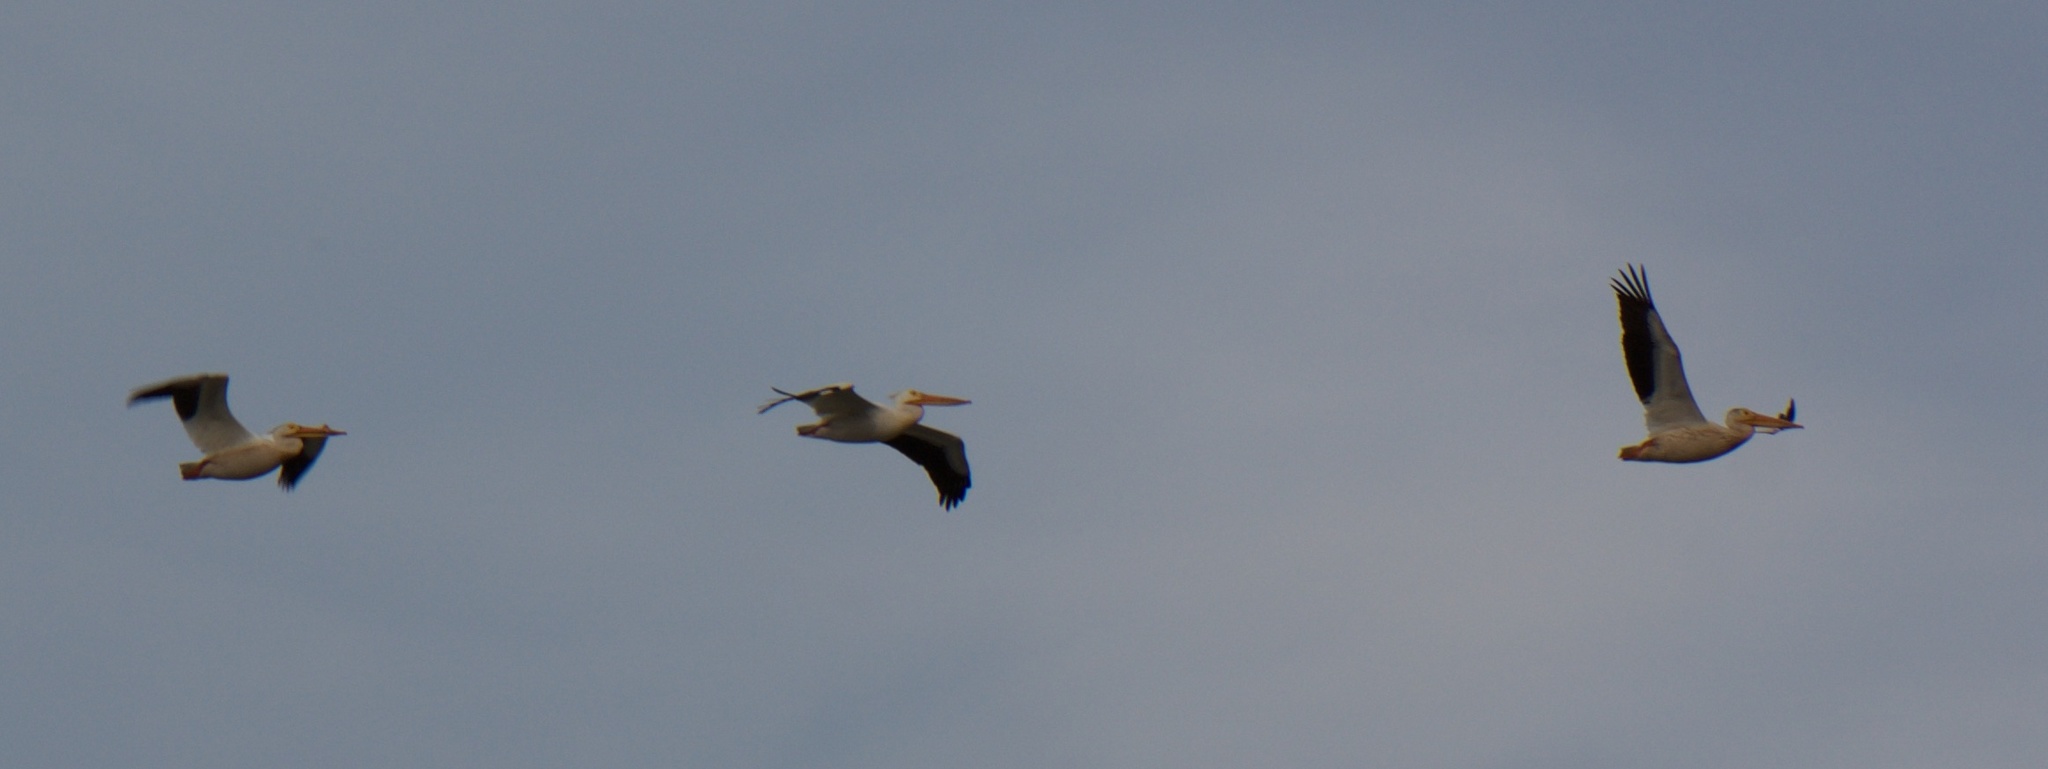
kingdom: Animalia
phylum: Chordata
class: Aves
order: Pelecaniformes
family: Pelecanidae
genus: Pelecanus
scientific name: Pelecanus erythrorhynchos
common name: American white pelican
